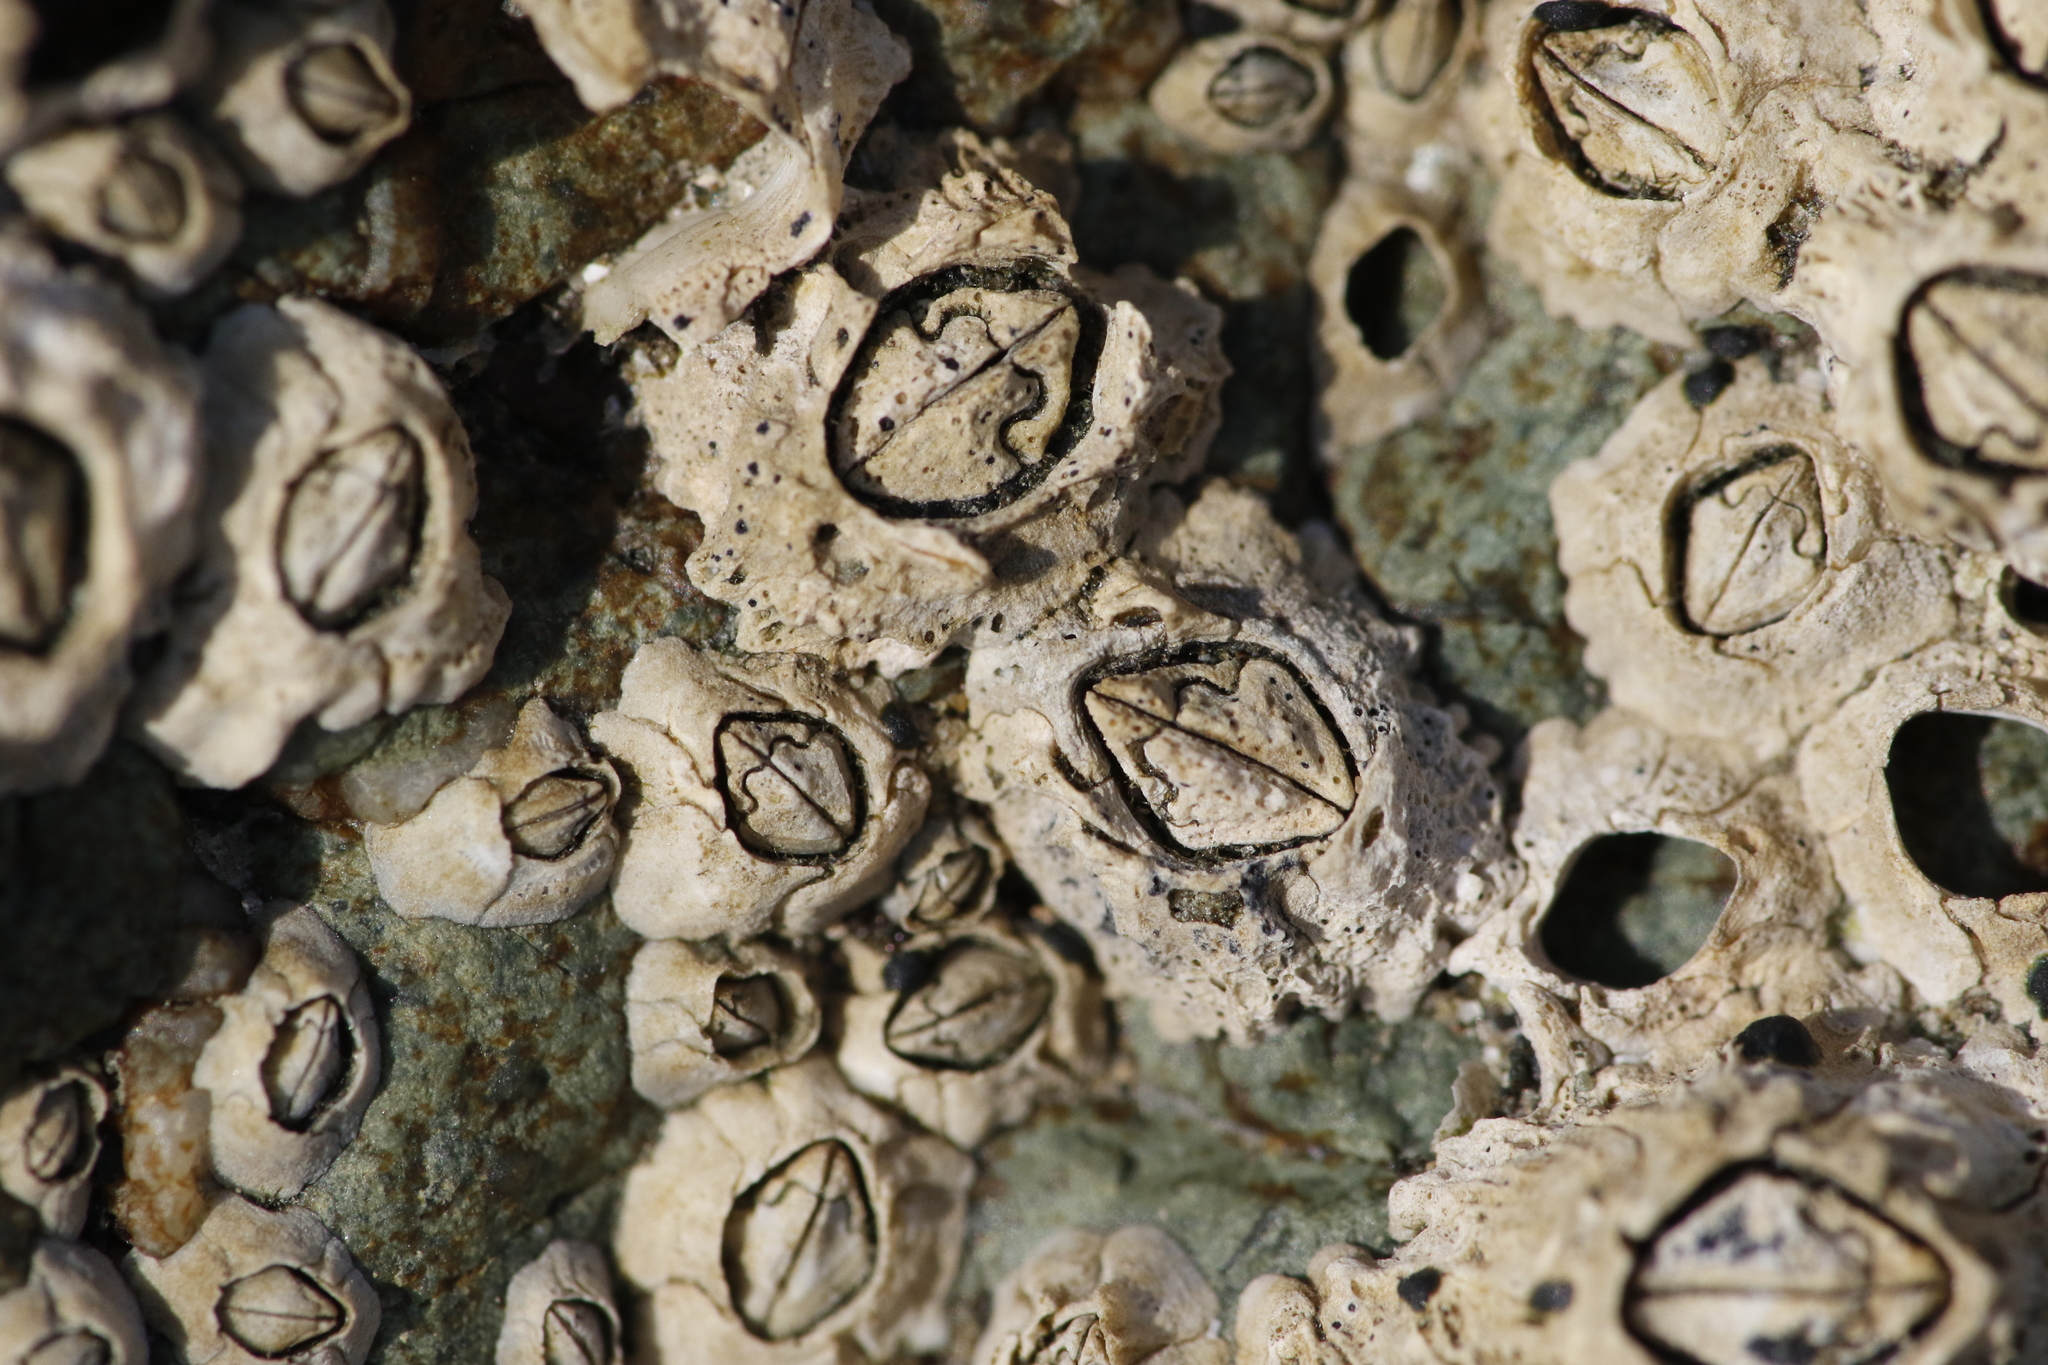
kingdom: Animalia
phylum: Arthropoda
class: Maxillopoda
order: Sessilia
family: Archaeobalanidae
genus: Semibalanus
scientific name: Semibalanus balanoides
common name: Acorn barnacle
